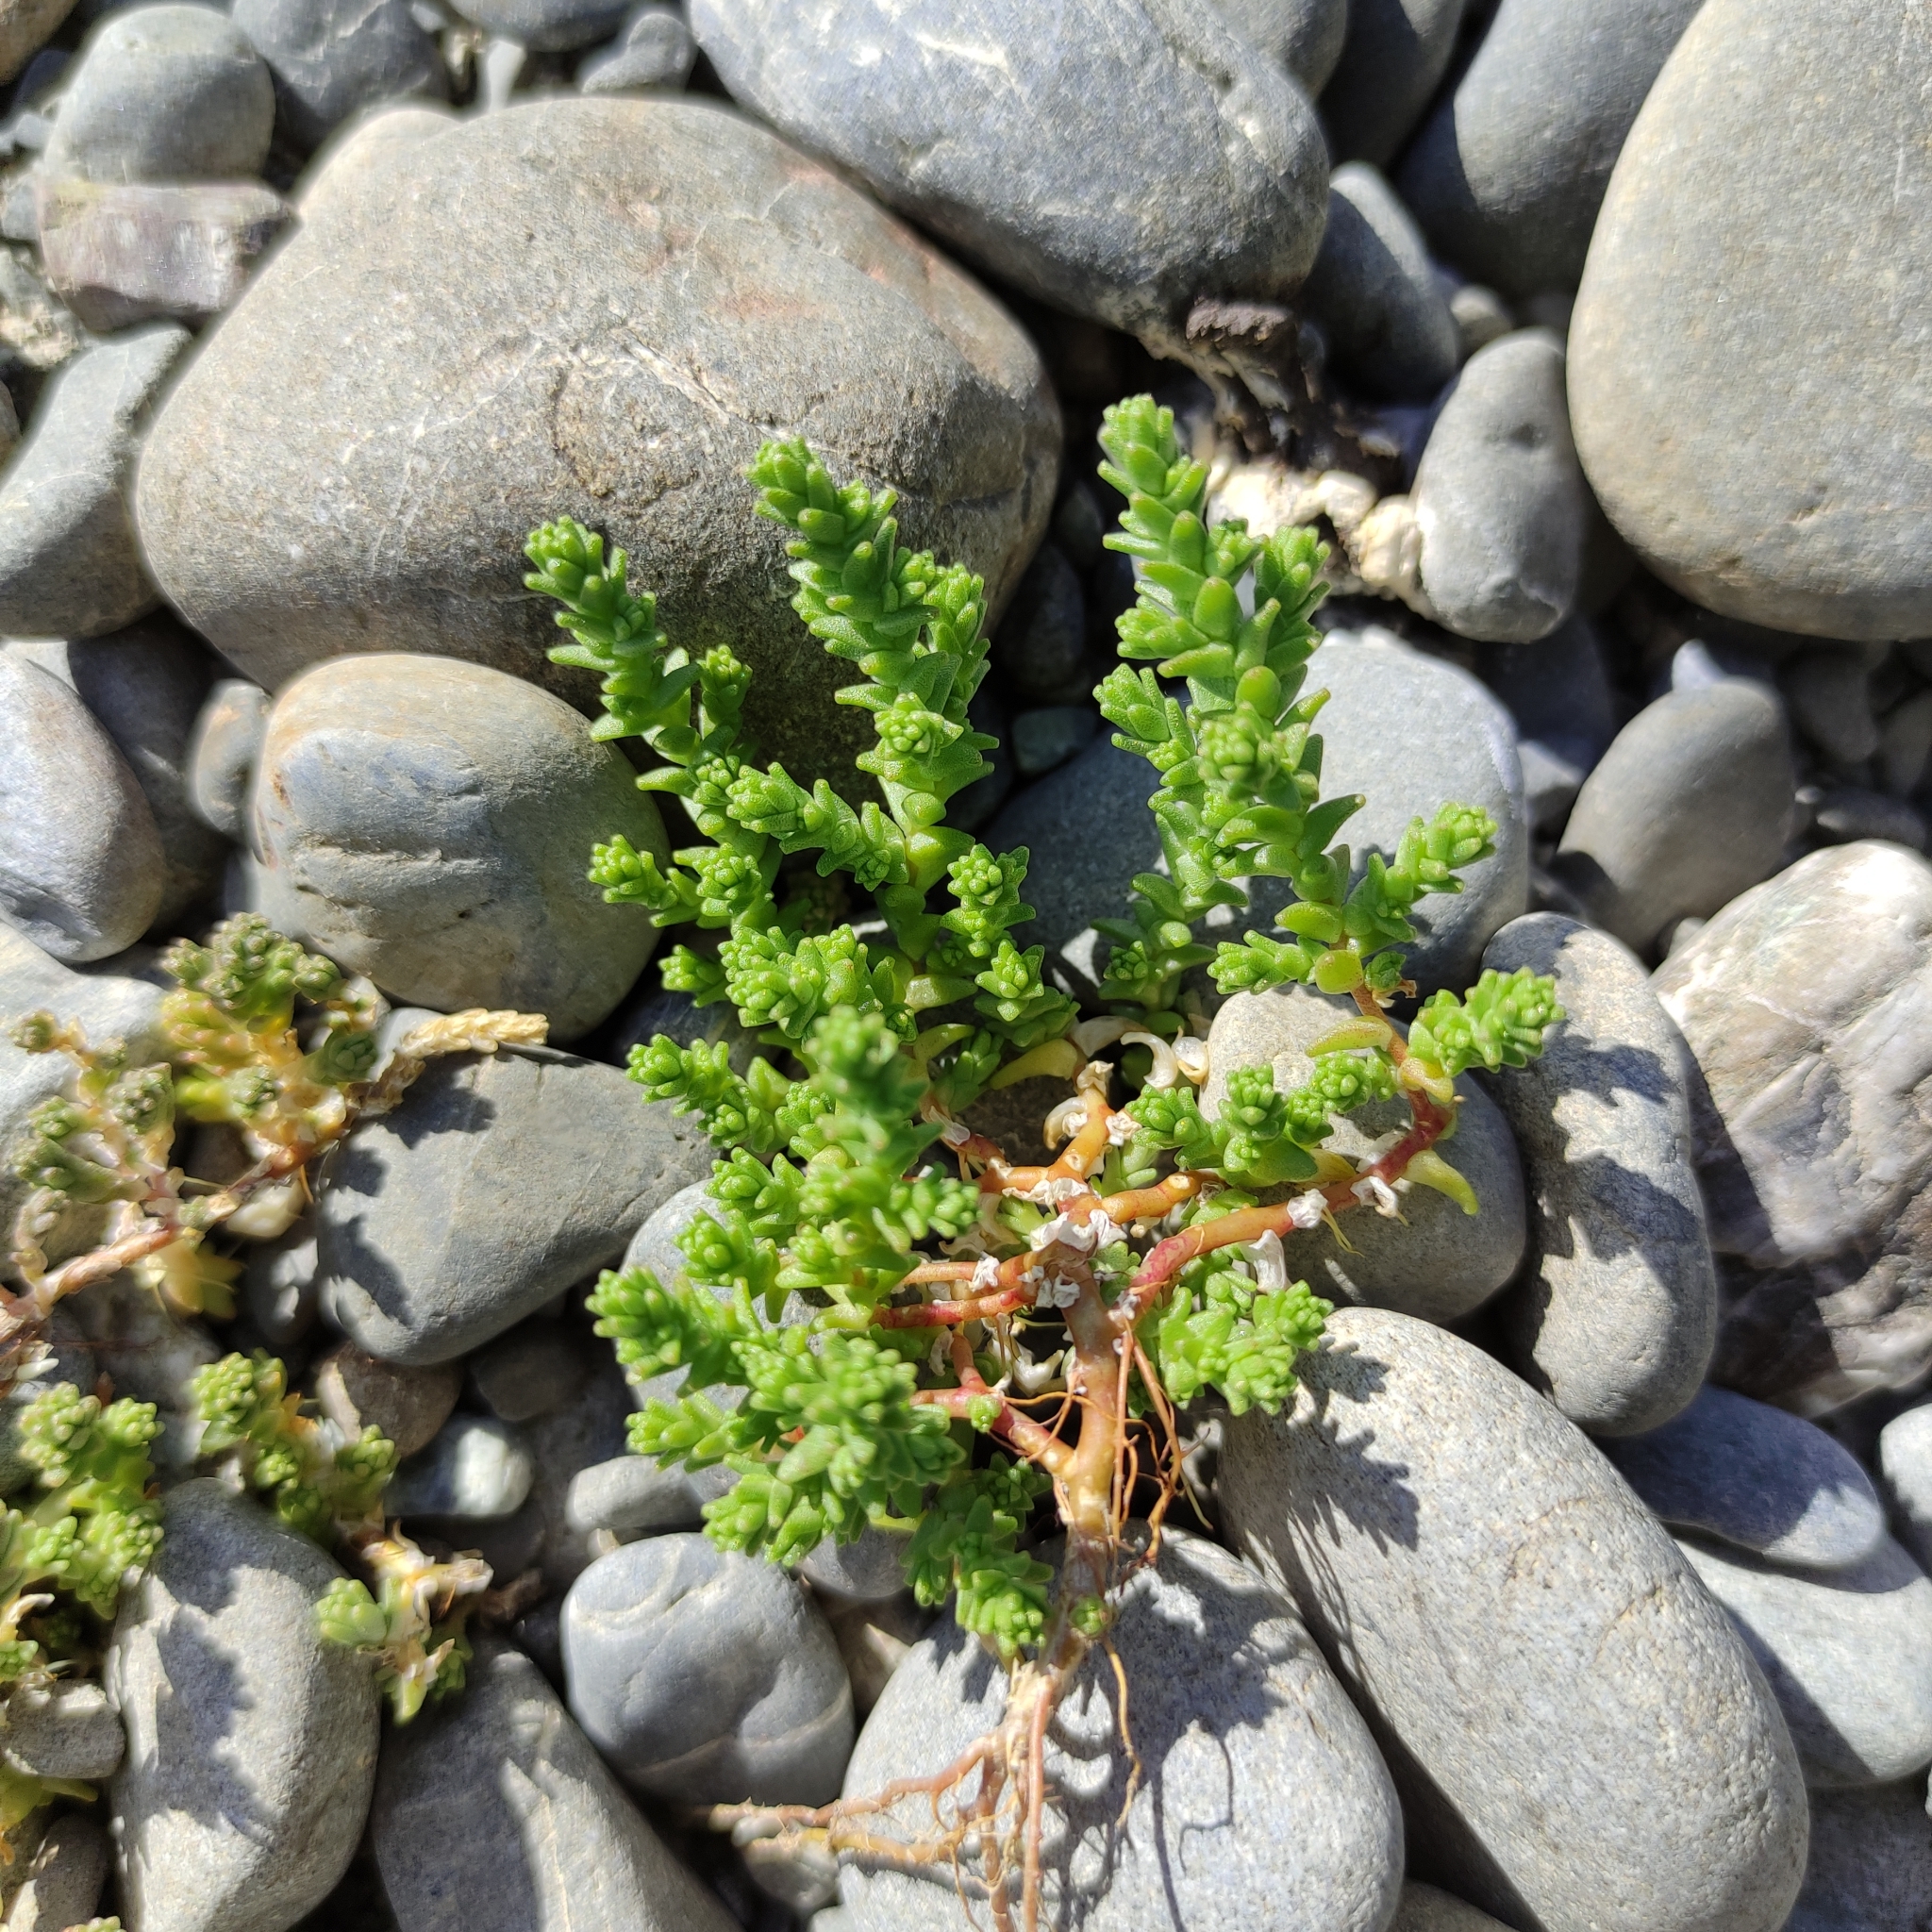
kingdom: Plantae
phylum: Tracheophyta
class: Magnoliopsida
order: Saxifragales
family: Crassulaceae
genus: Sedum
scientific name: Sedum acre
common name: Biting stonecrop
